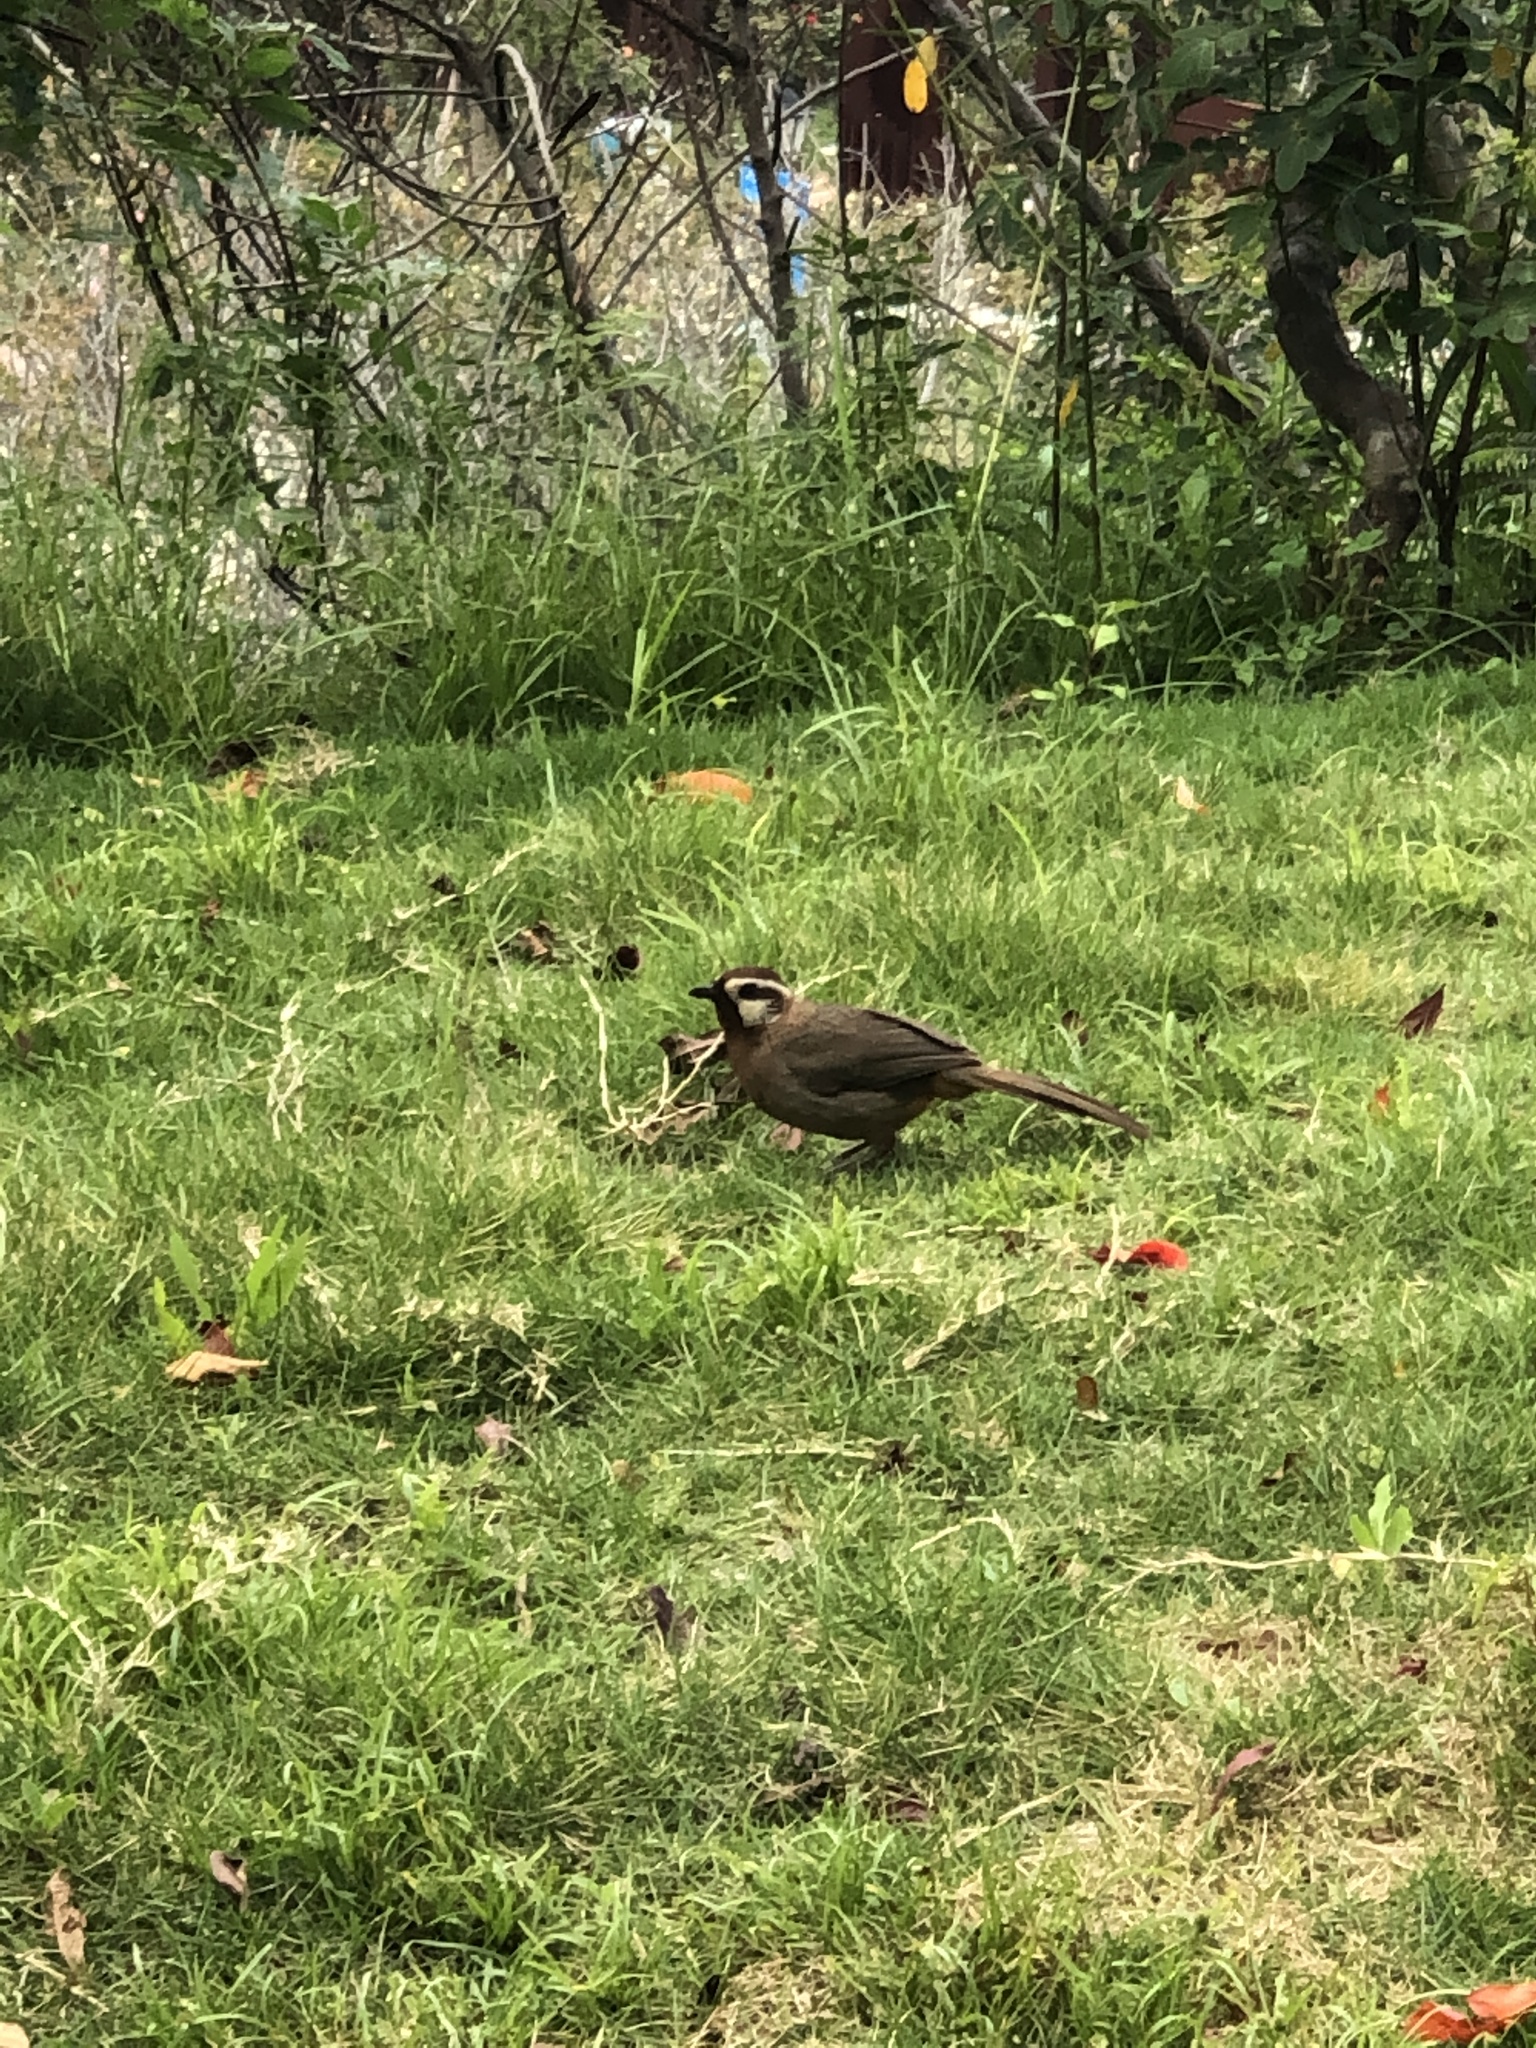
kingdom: Animalia
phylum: Chordata
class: Aves
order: Passeriformes
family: Leiothrichidae
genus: Pterorhinus
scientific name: Pterorhinus sannio
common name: White-browed laughingthrush
